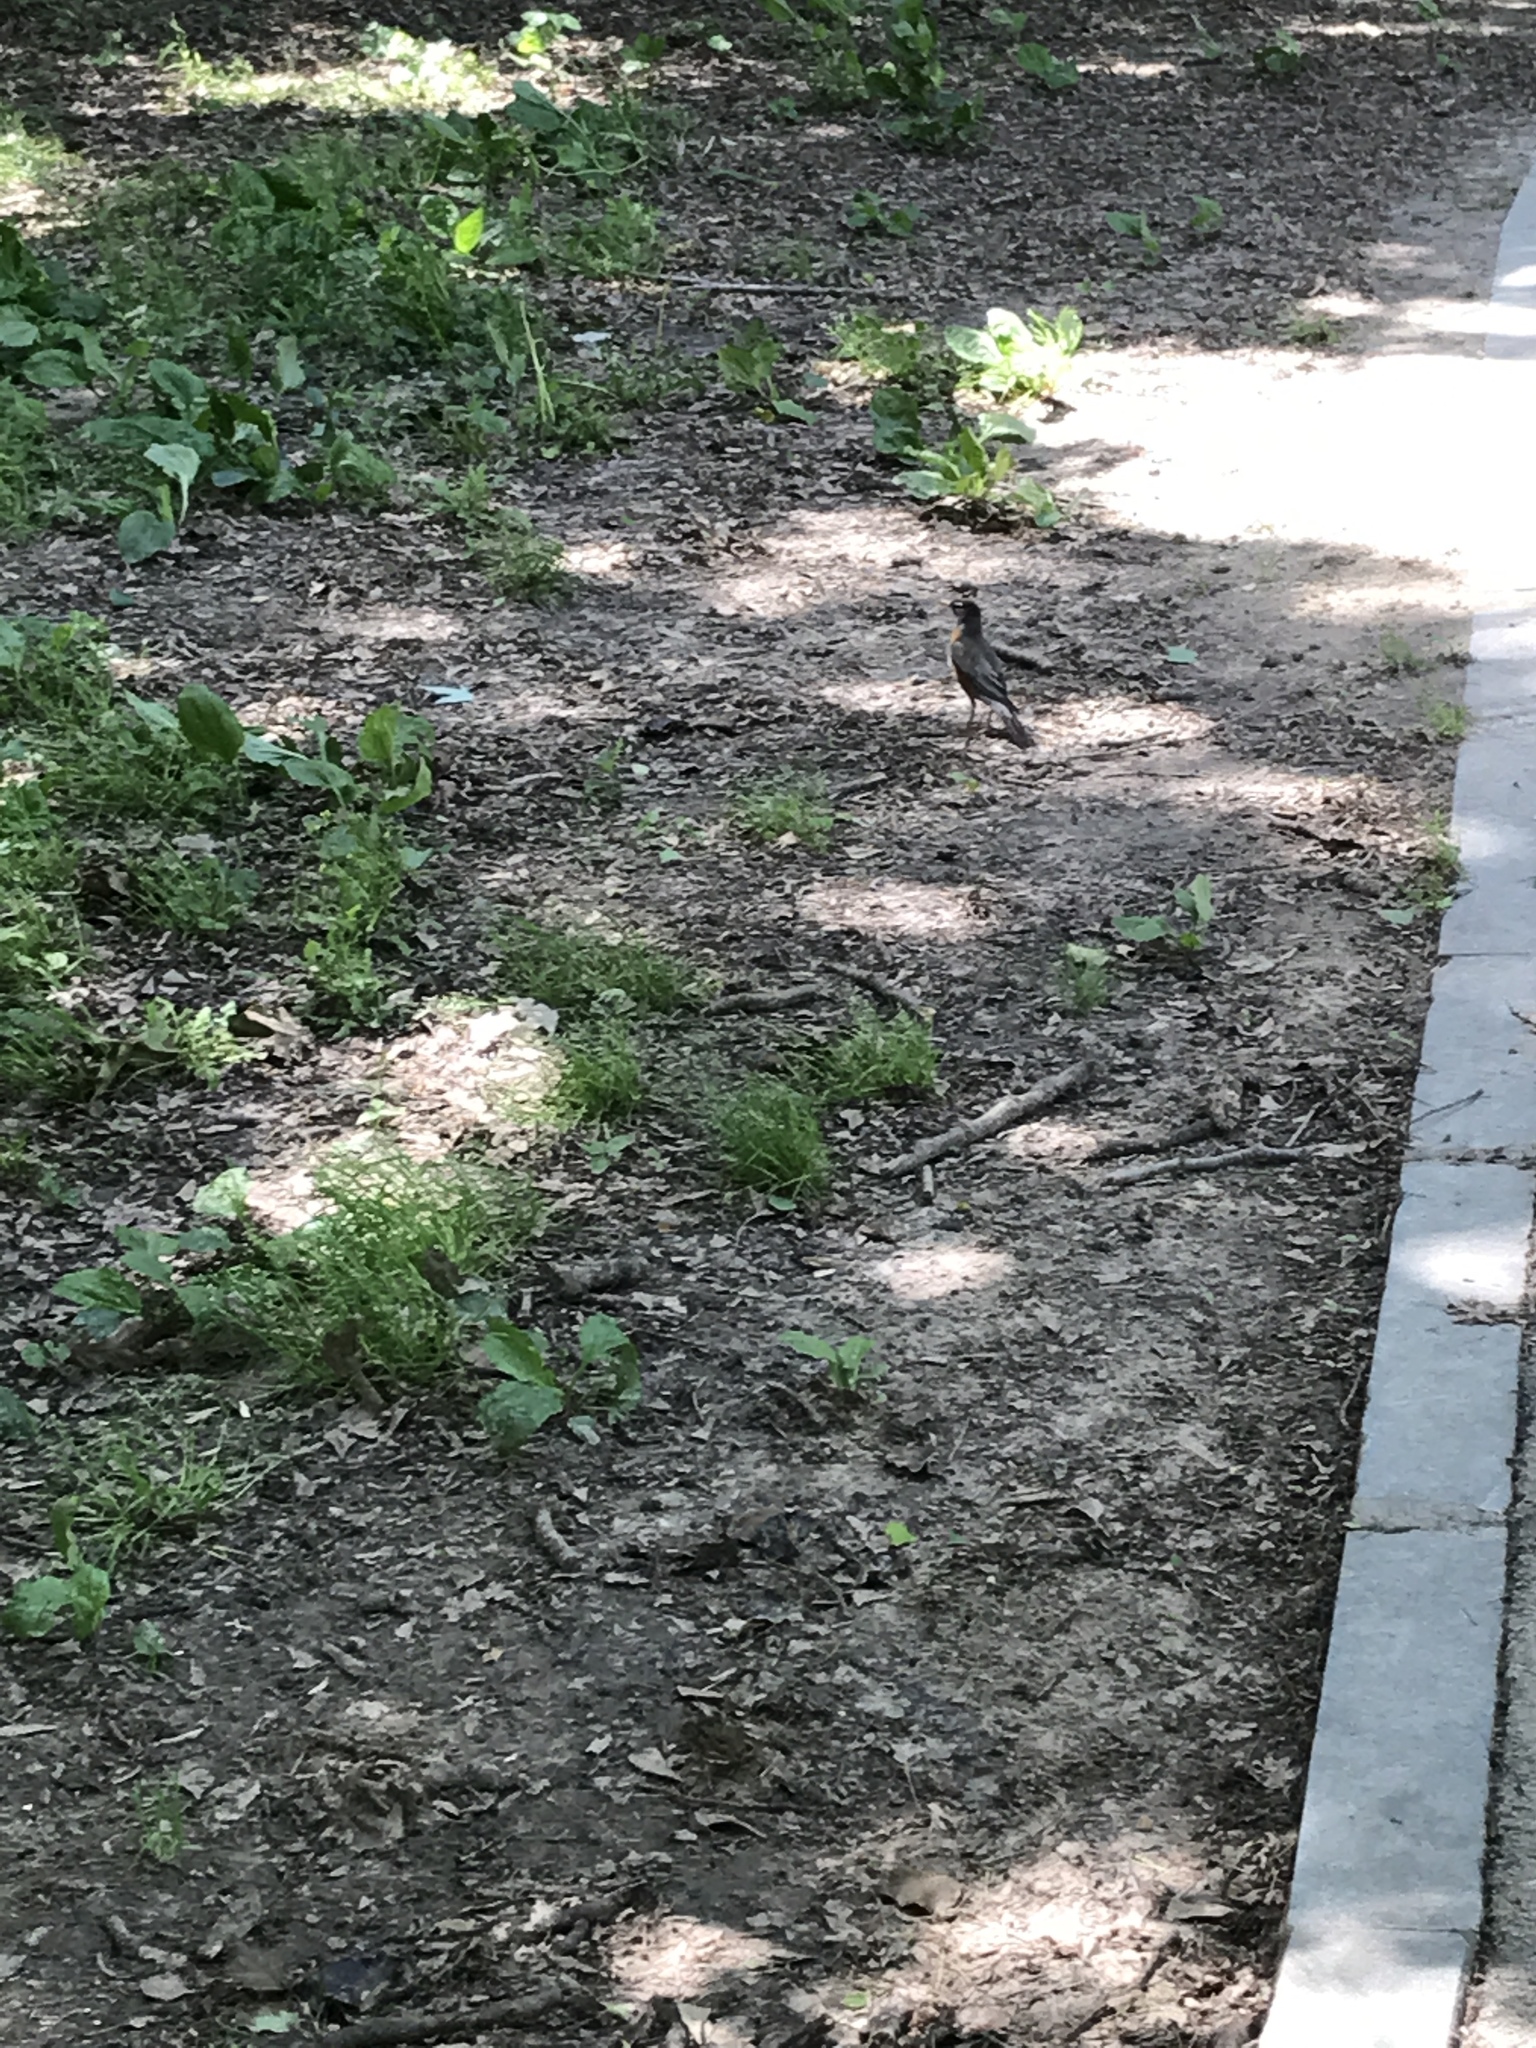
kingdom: Animalia
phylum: Chordata
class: Aves
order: Passeriformes
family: Turdidae
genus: Turdus
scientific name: Turdus migratorius
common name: American robin
